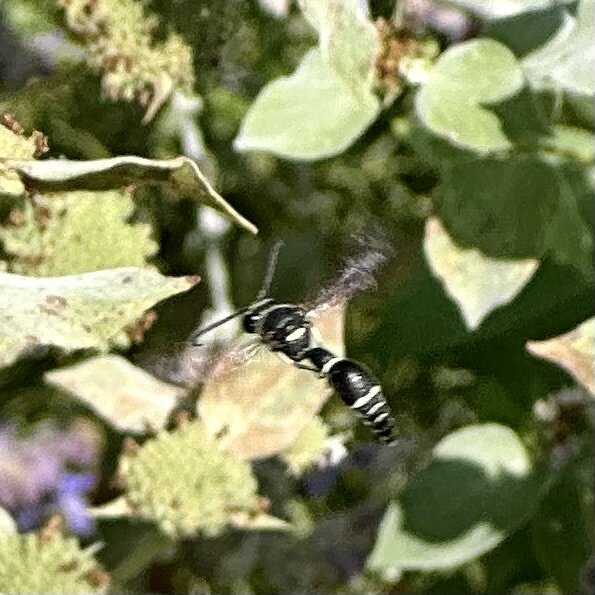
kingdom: Animalia
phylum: Arthropoda
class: Insecta
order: Hymenoptera
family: Vespidae
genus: Eumenes
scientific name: Eumenes fraternus
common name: Fraternal potter wasp
